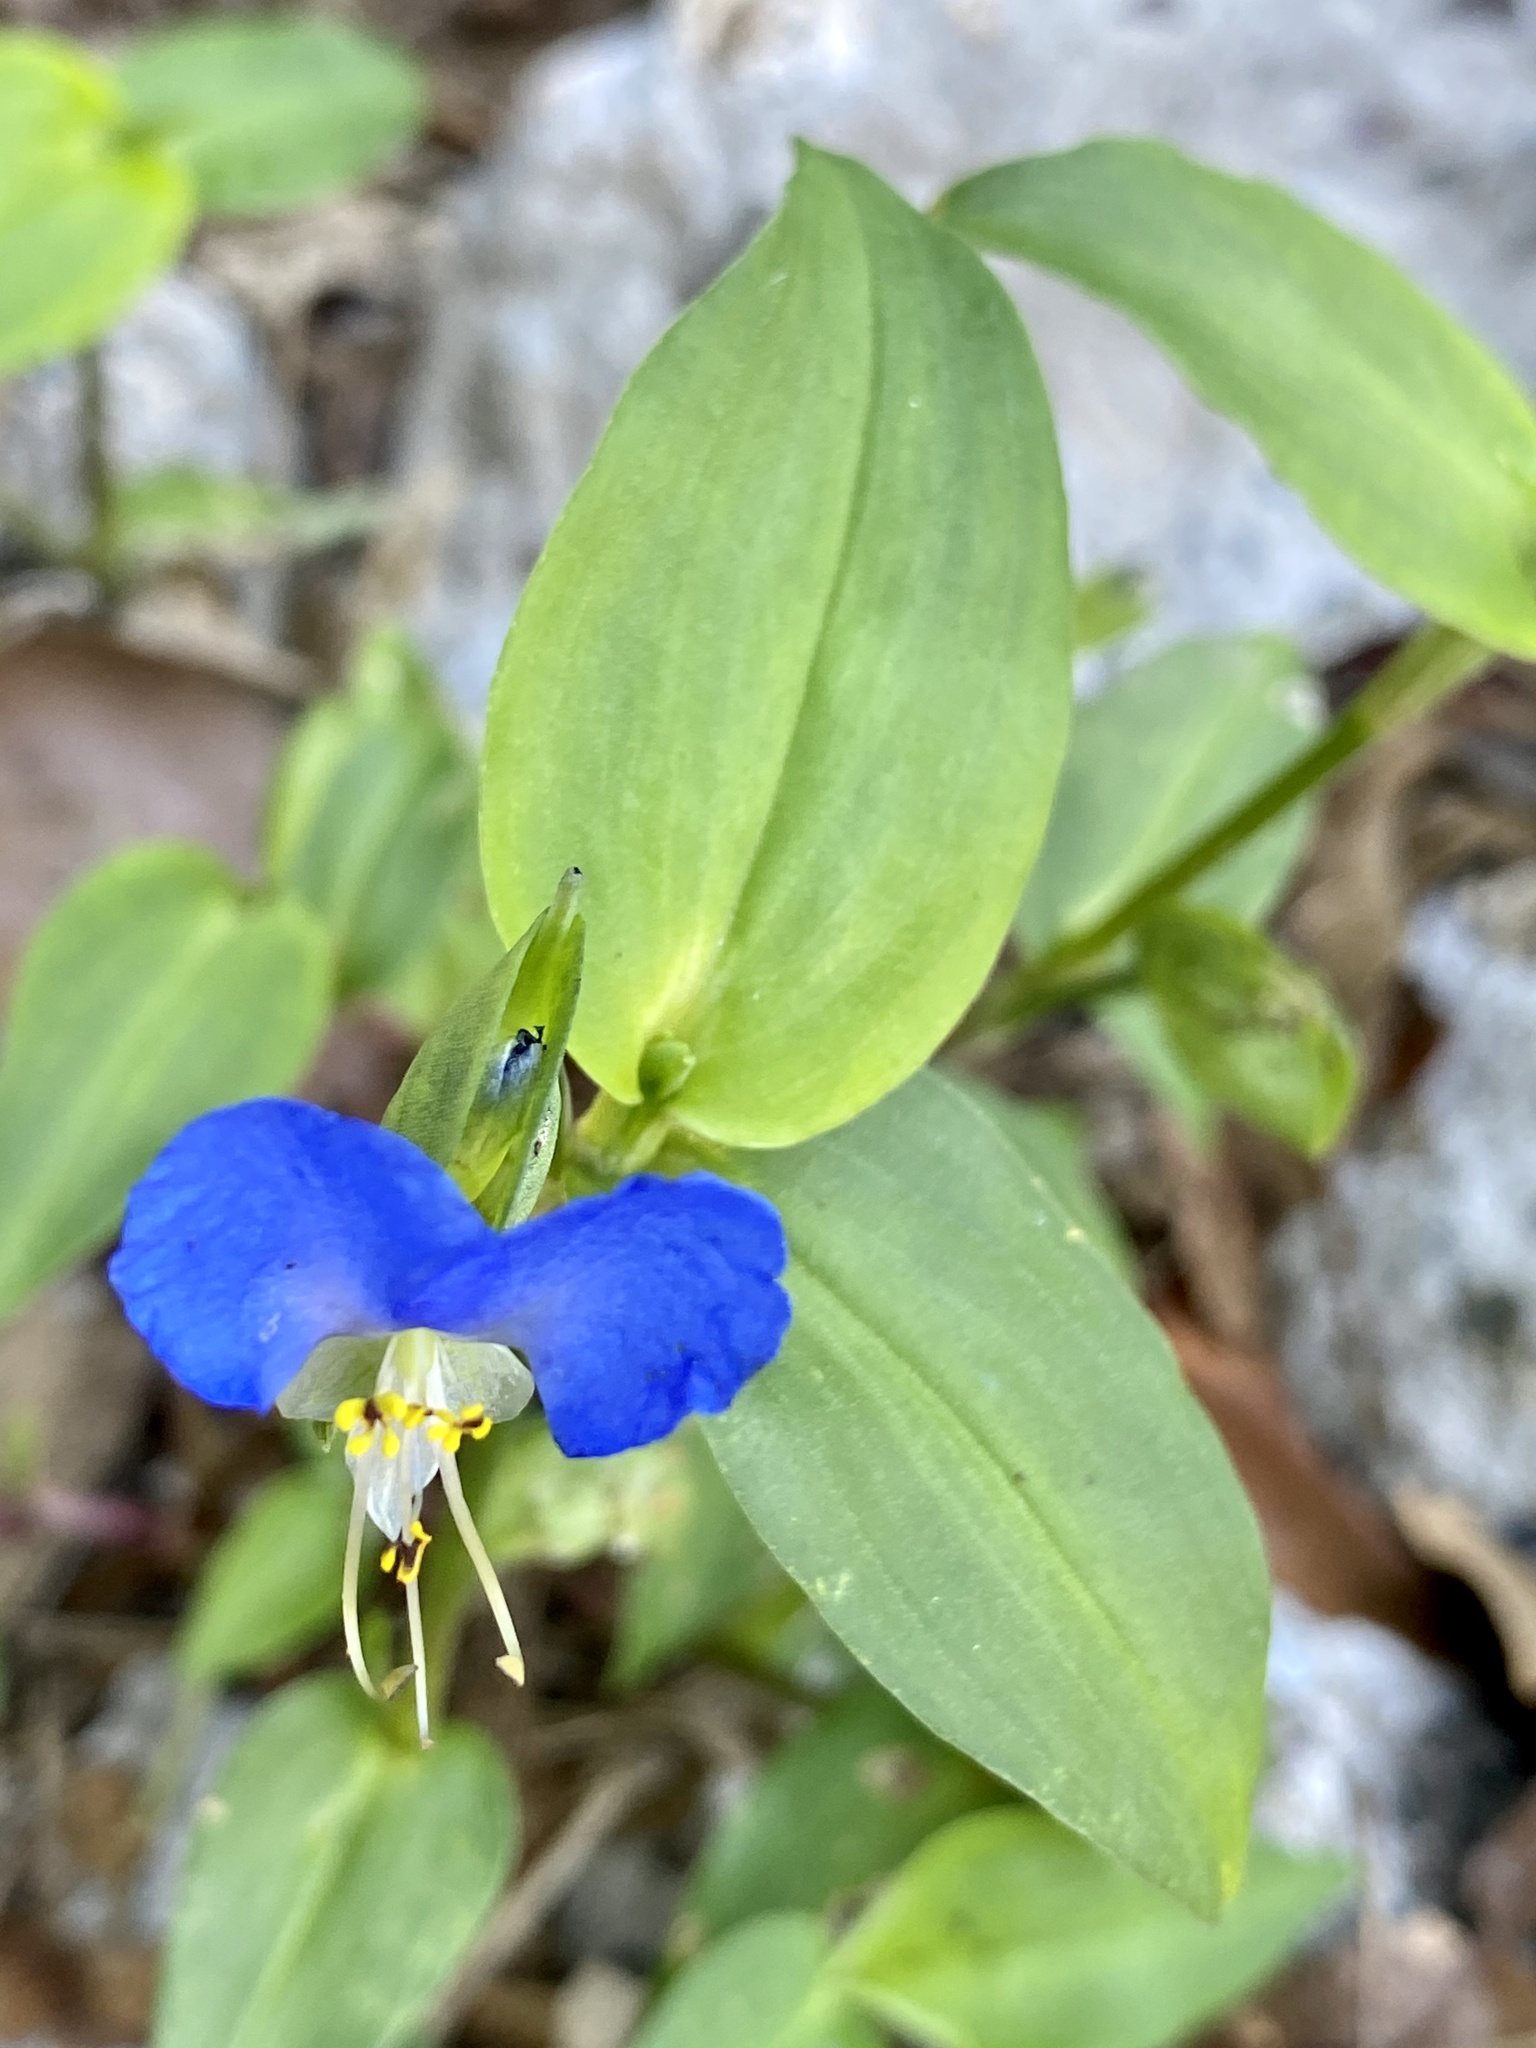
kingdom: Plantae
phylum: Tracheophyta
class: Liliopsida
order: Commelinales
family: Commelinaceae
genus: Commelina
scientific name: Commelina communis
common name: Asiatic dayflower
